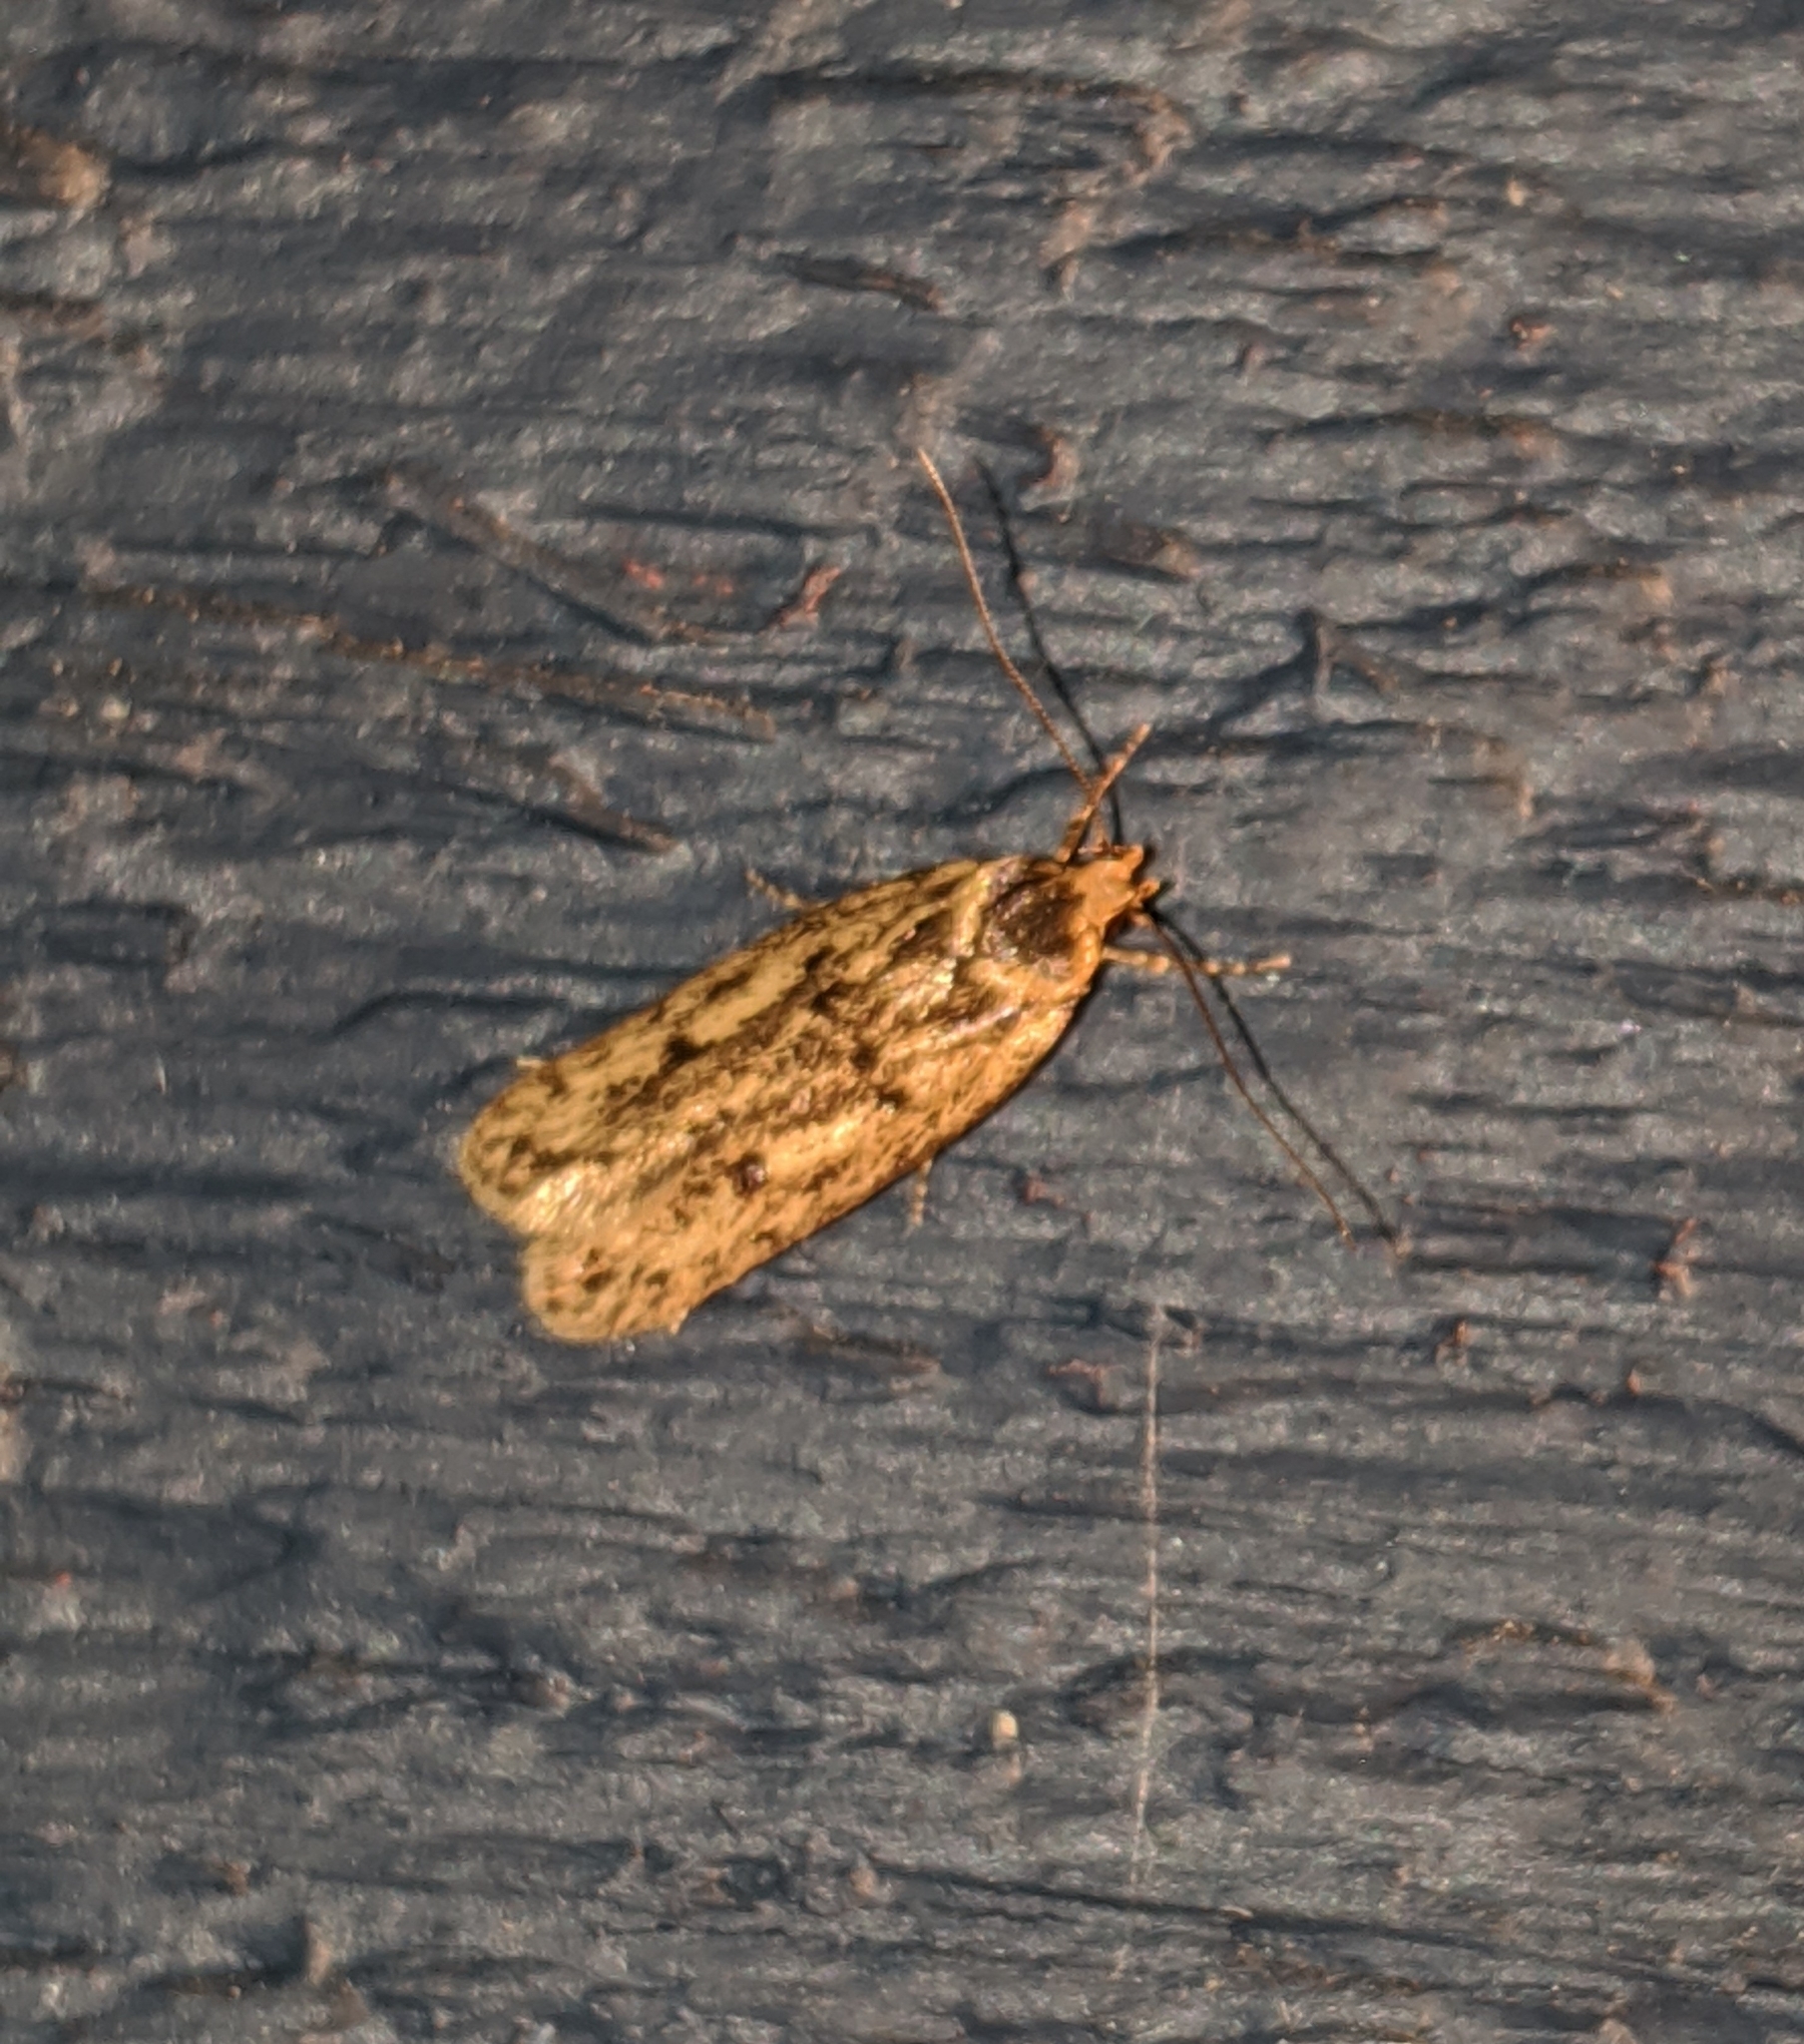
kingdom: Animalia
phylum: Arthropoda
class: Insecta
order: Lepidoptera
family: Oecophoridae
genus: Hofmannophila
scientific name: Hofmannophila pseudospretella
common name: Brown house moth
